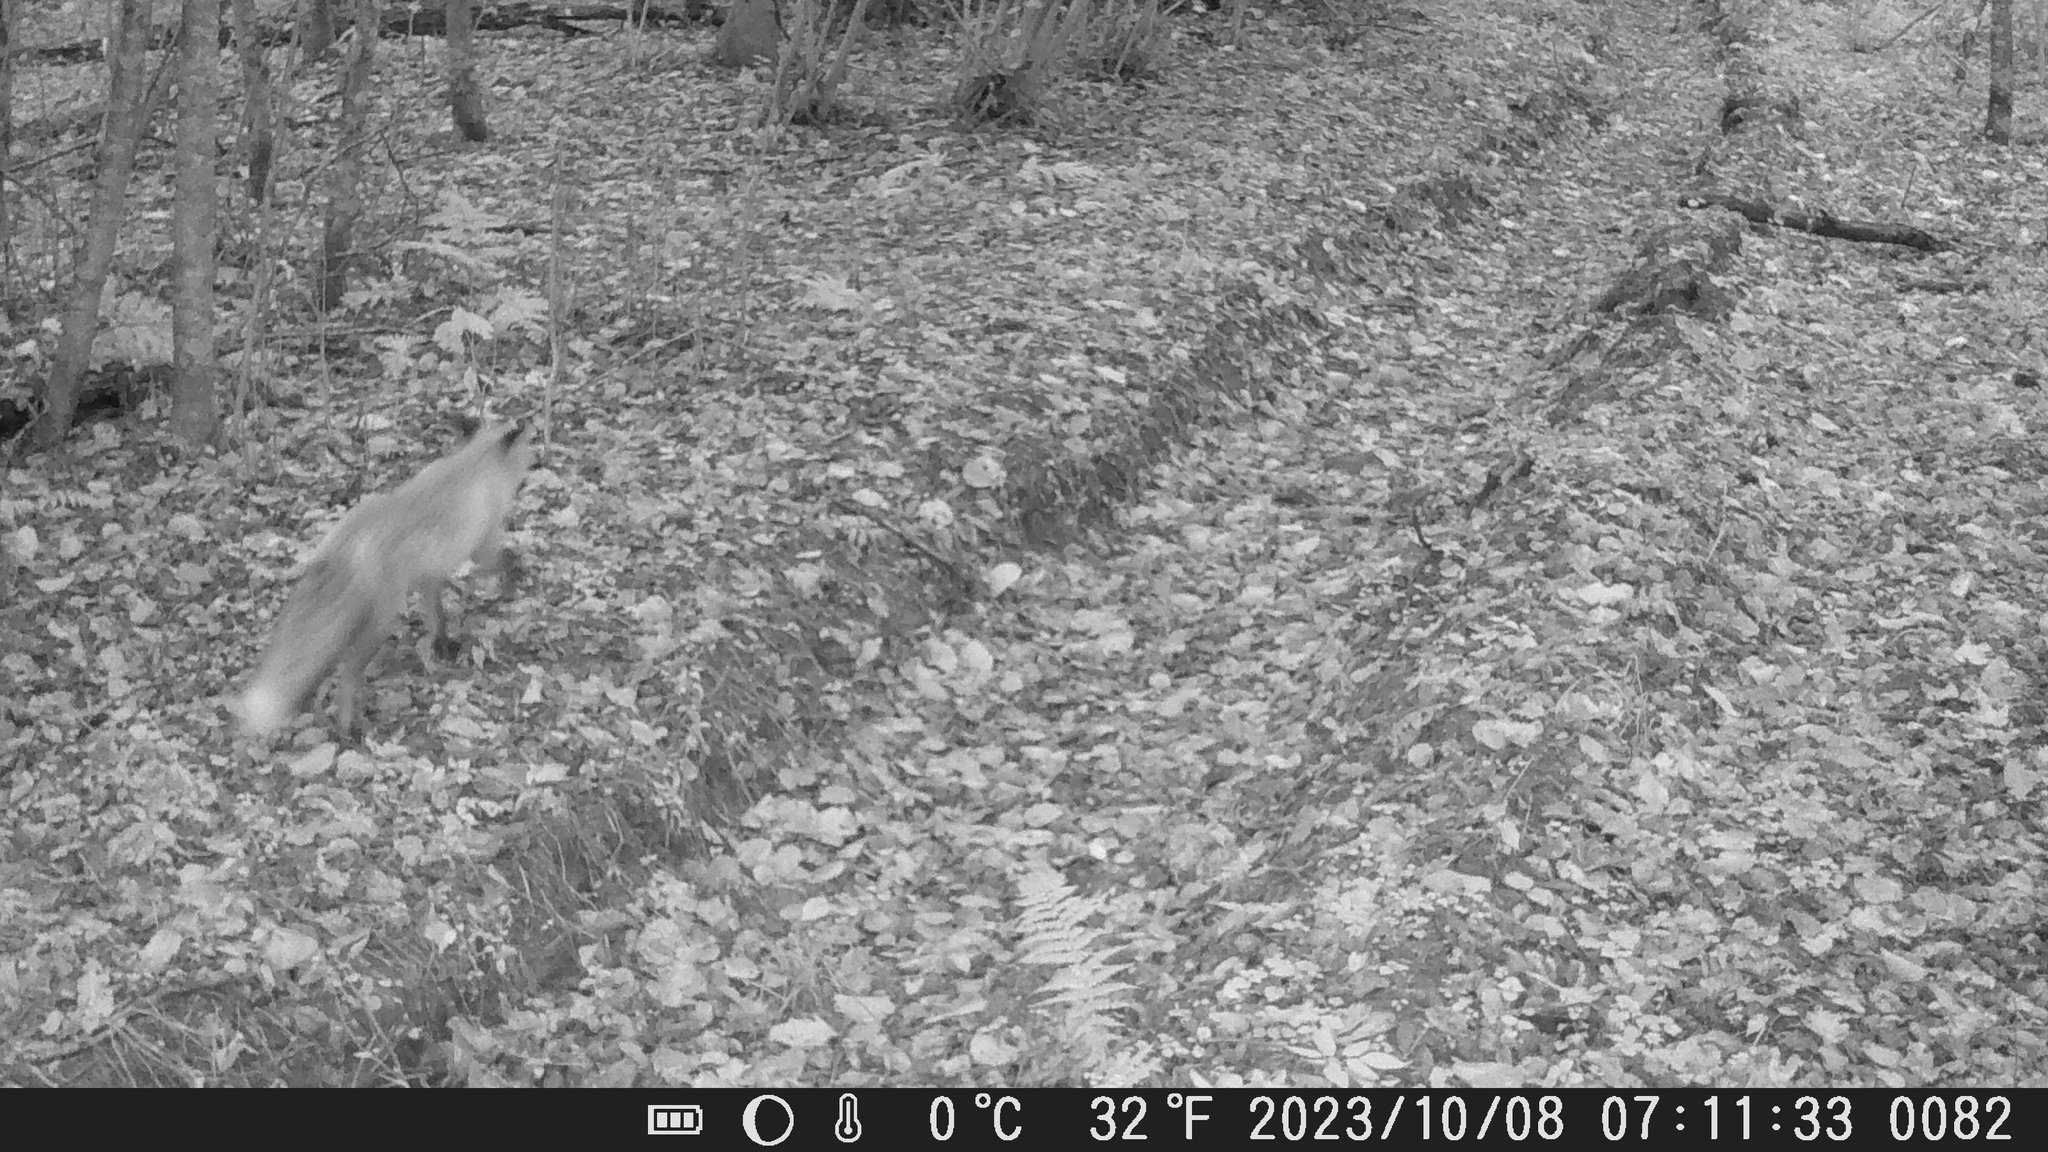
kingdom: Animalia
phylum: Chordata
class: Mammalia
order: Carnivora
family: Canidae
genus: Vulpes
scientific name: Vulpes vulpes
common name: Red fox
